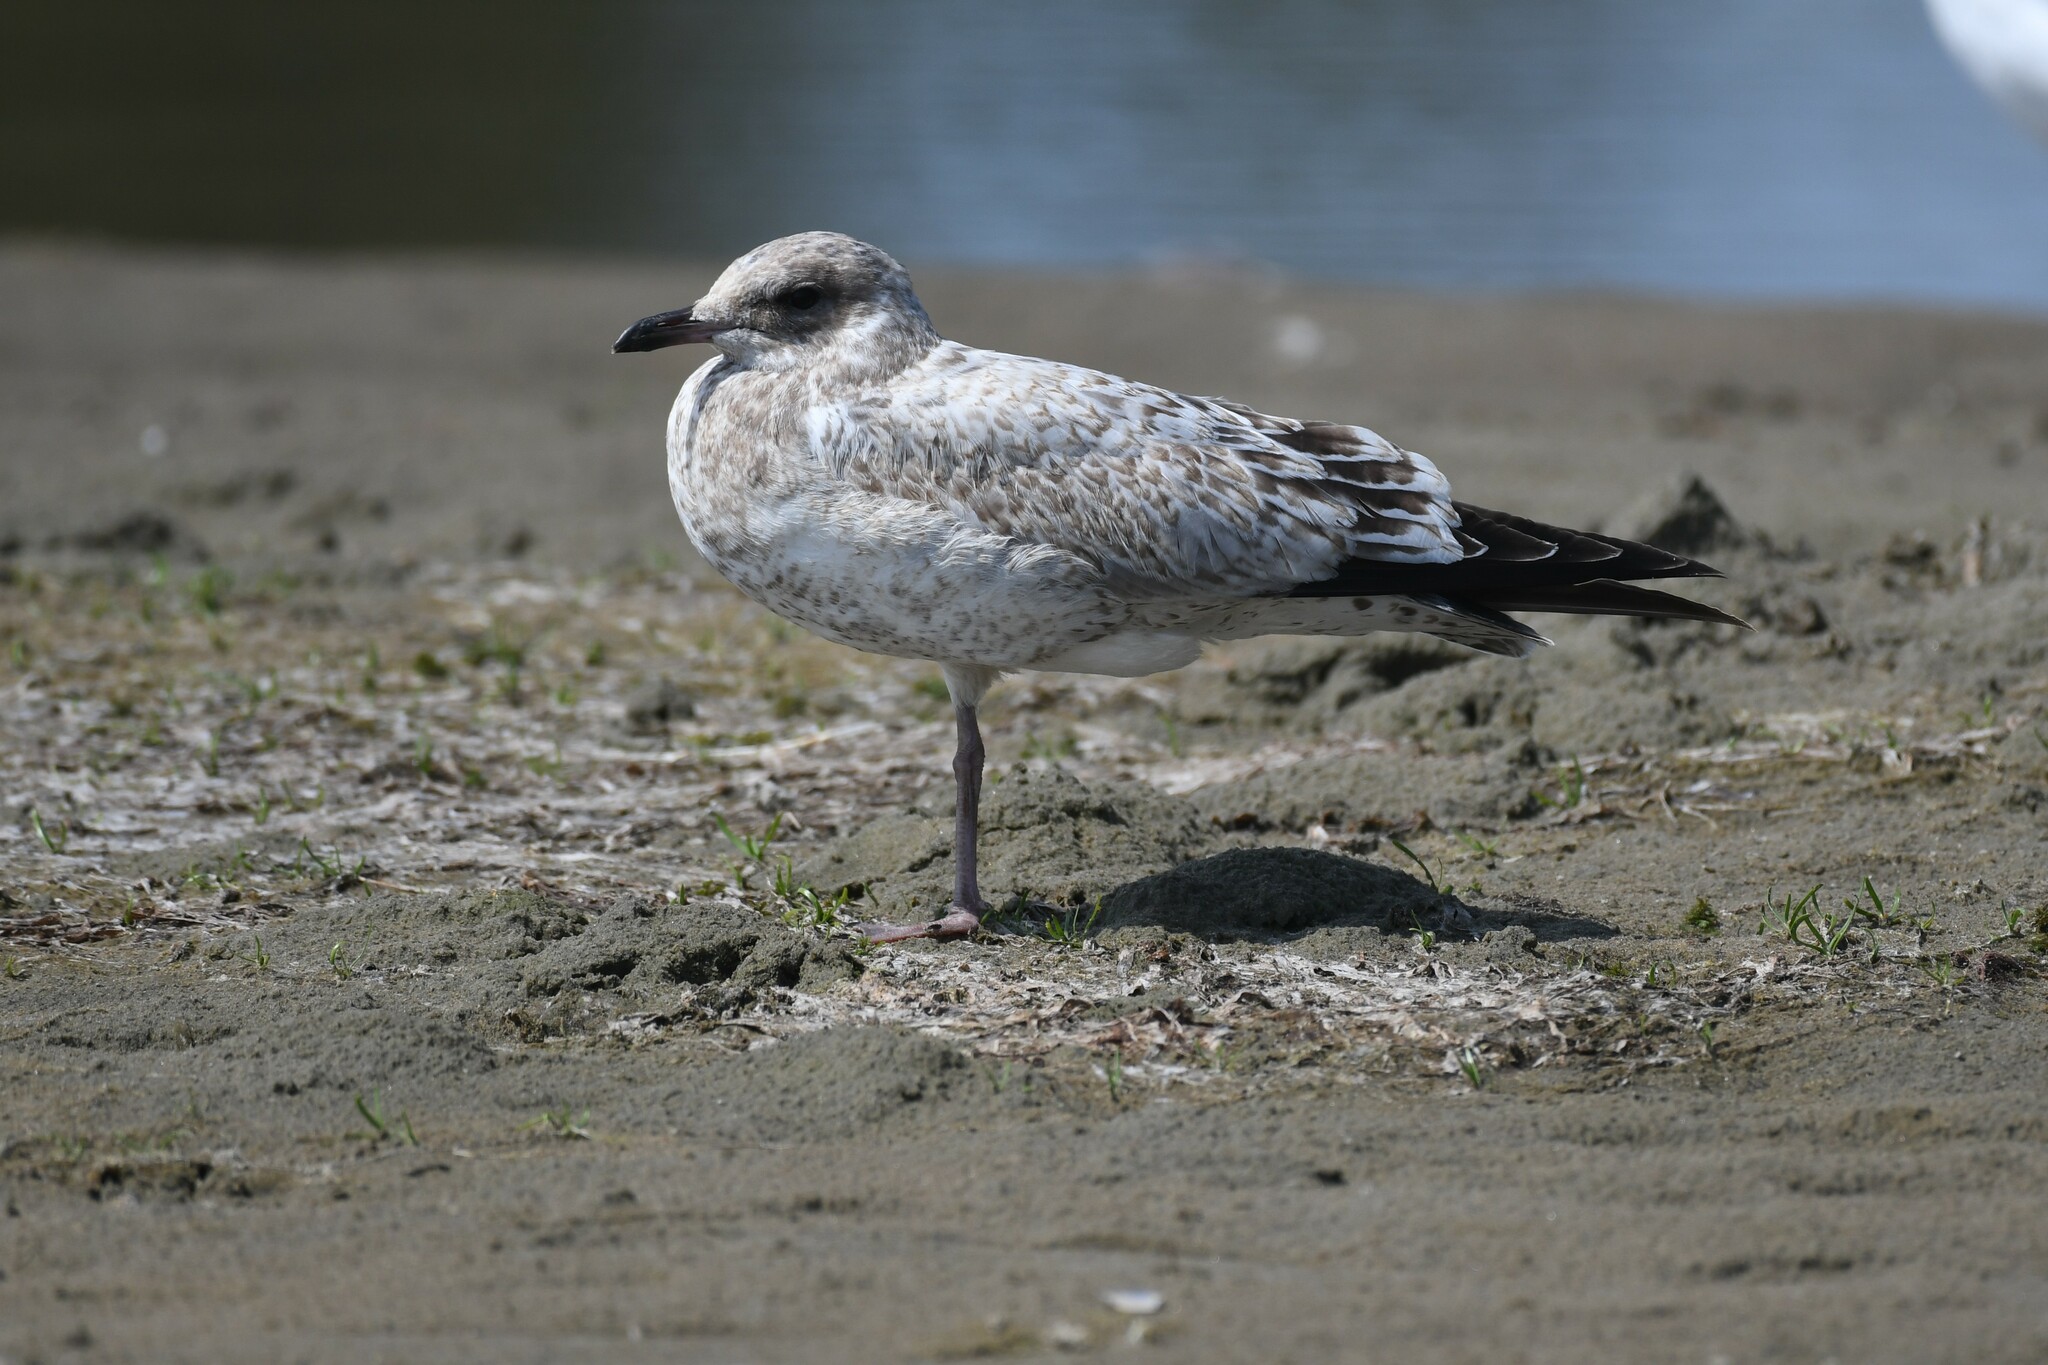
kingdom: Animalia
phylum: Chordata
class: Aves
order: Charadriiformes
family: Laridae
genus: Larus
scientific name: Larus delawarensis
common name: Ring-billed gull
